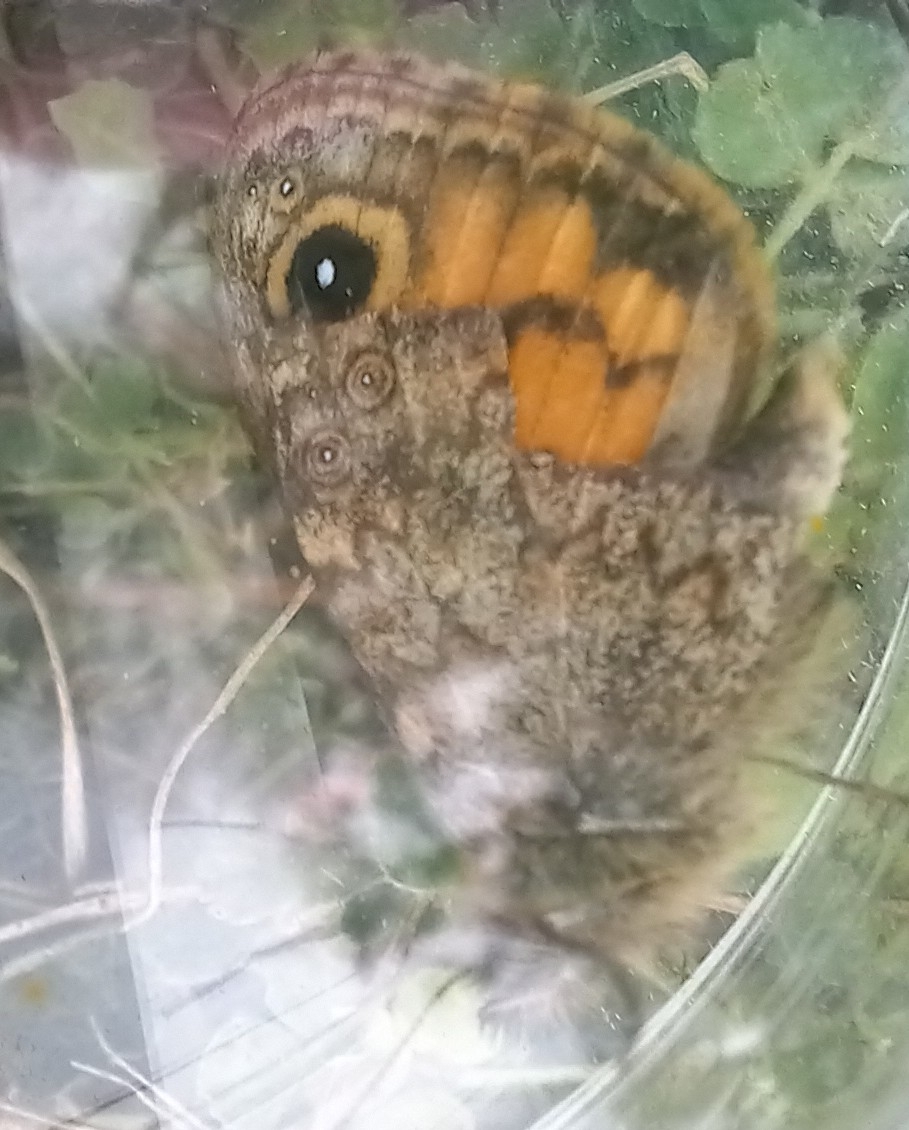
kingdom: Animalia
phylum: Arthropoda
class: Insecta
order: Lepidoptera
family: Nymphalidae
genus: Pararge
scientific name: Pararge Lasiommata megera
